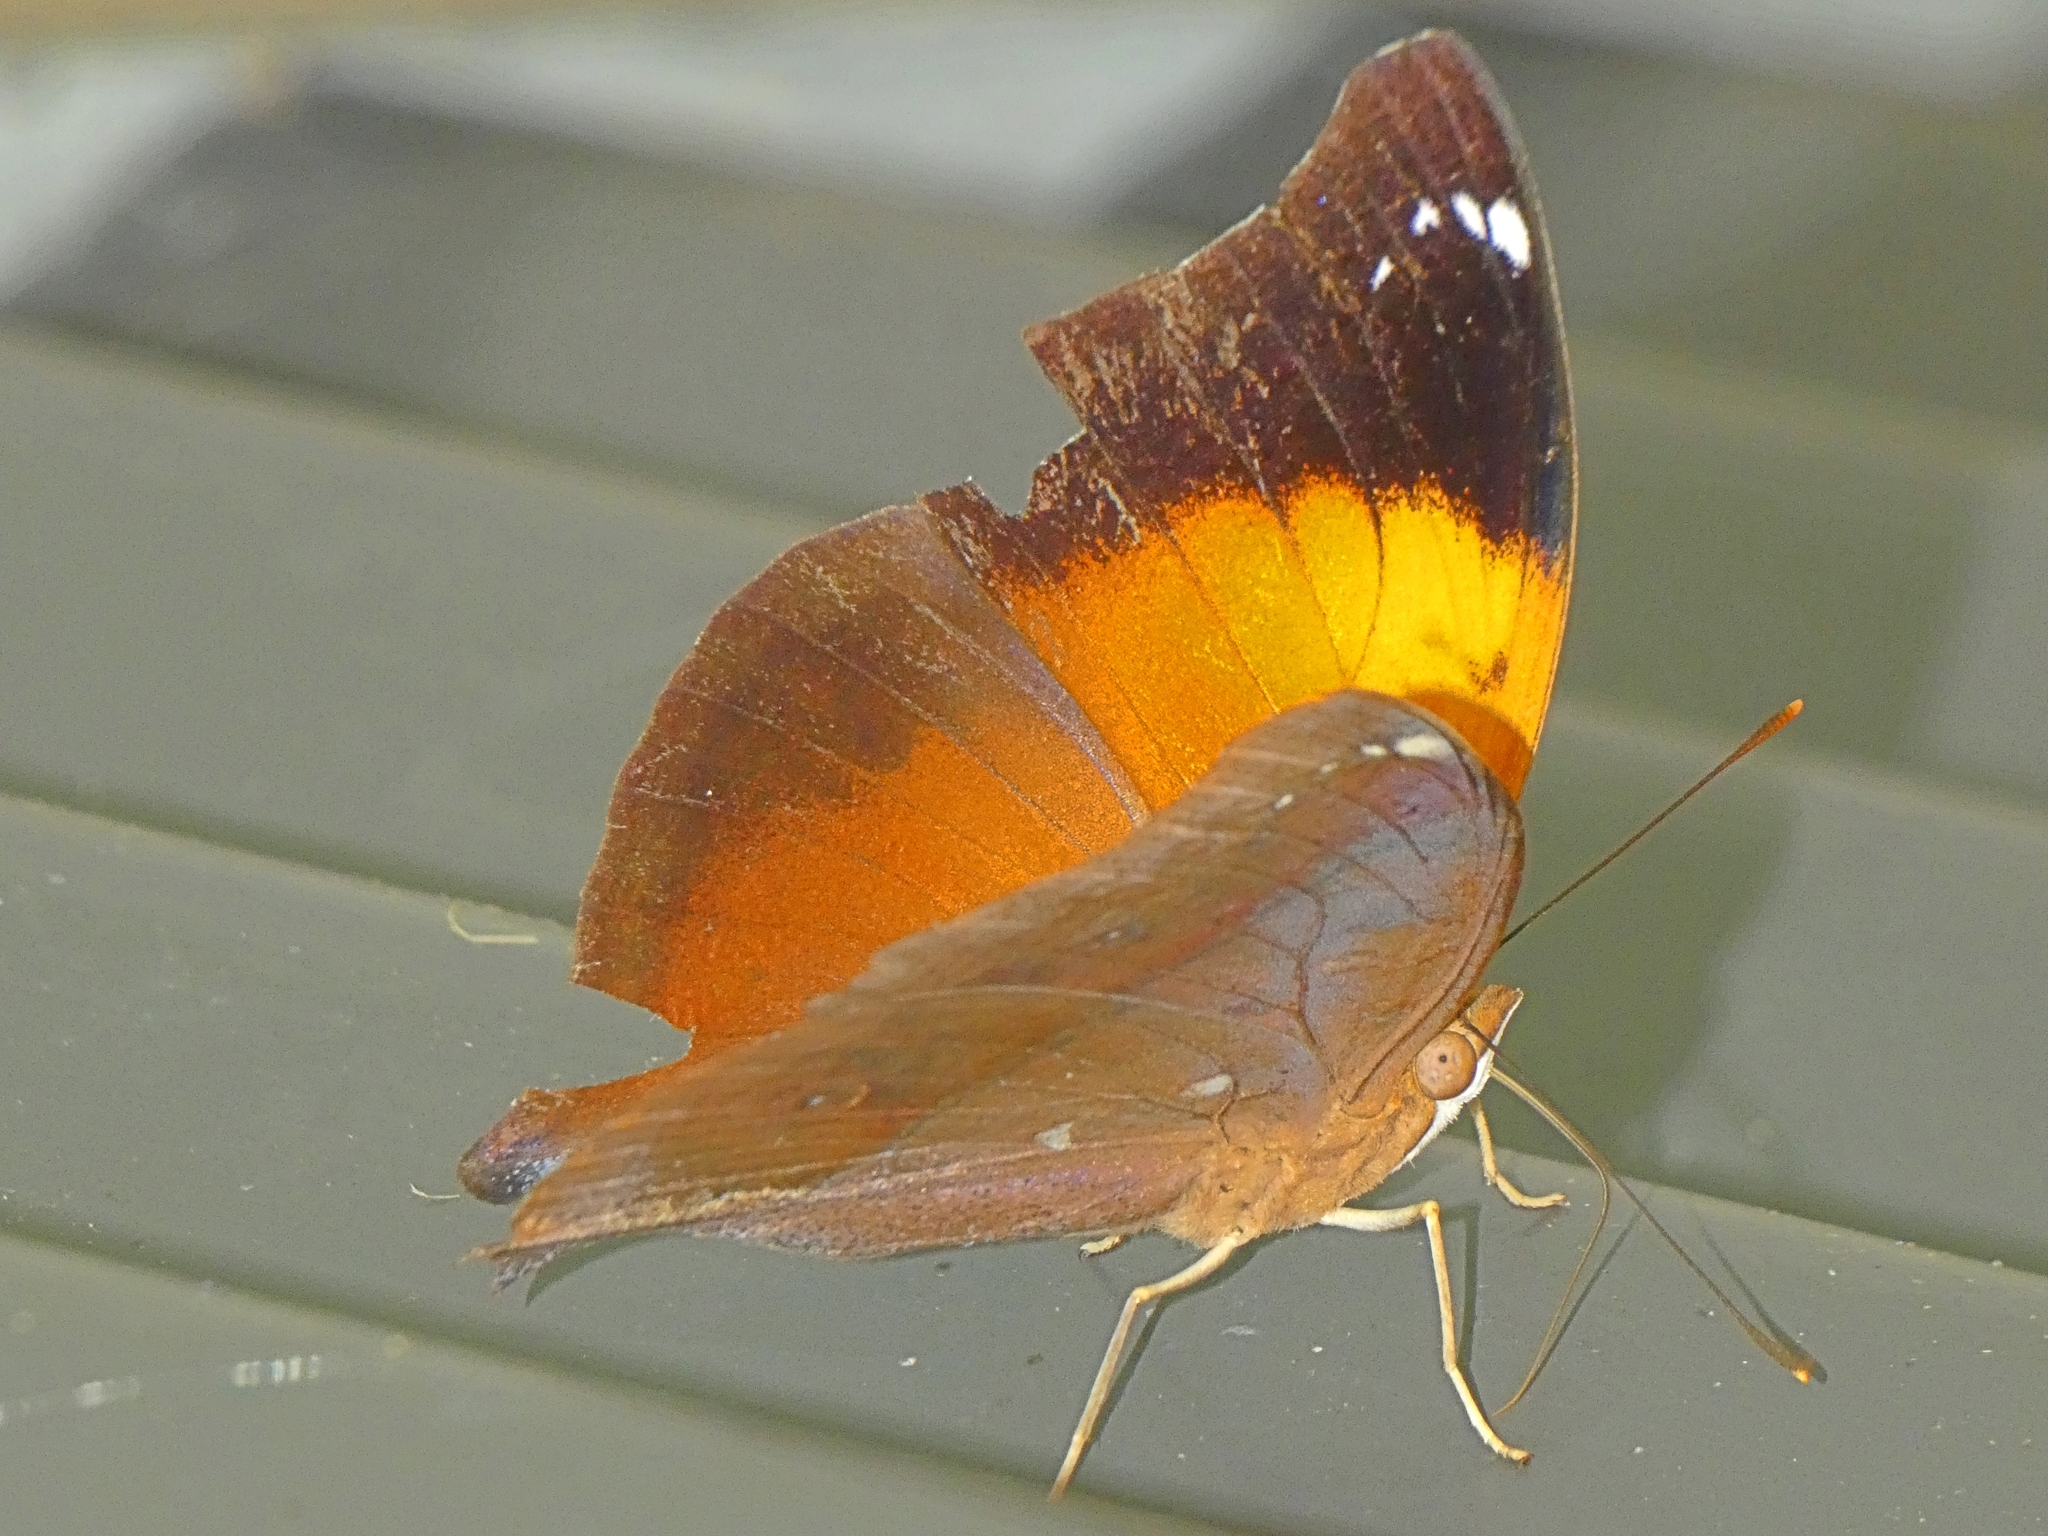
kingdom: Animalia
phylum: Arthropoda
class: Insecta
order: Lepidoptera
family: Nymphalidae
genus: Doleschallia
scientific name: Doleschallia bisaltide
